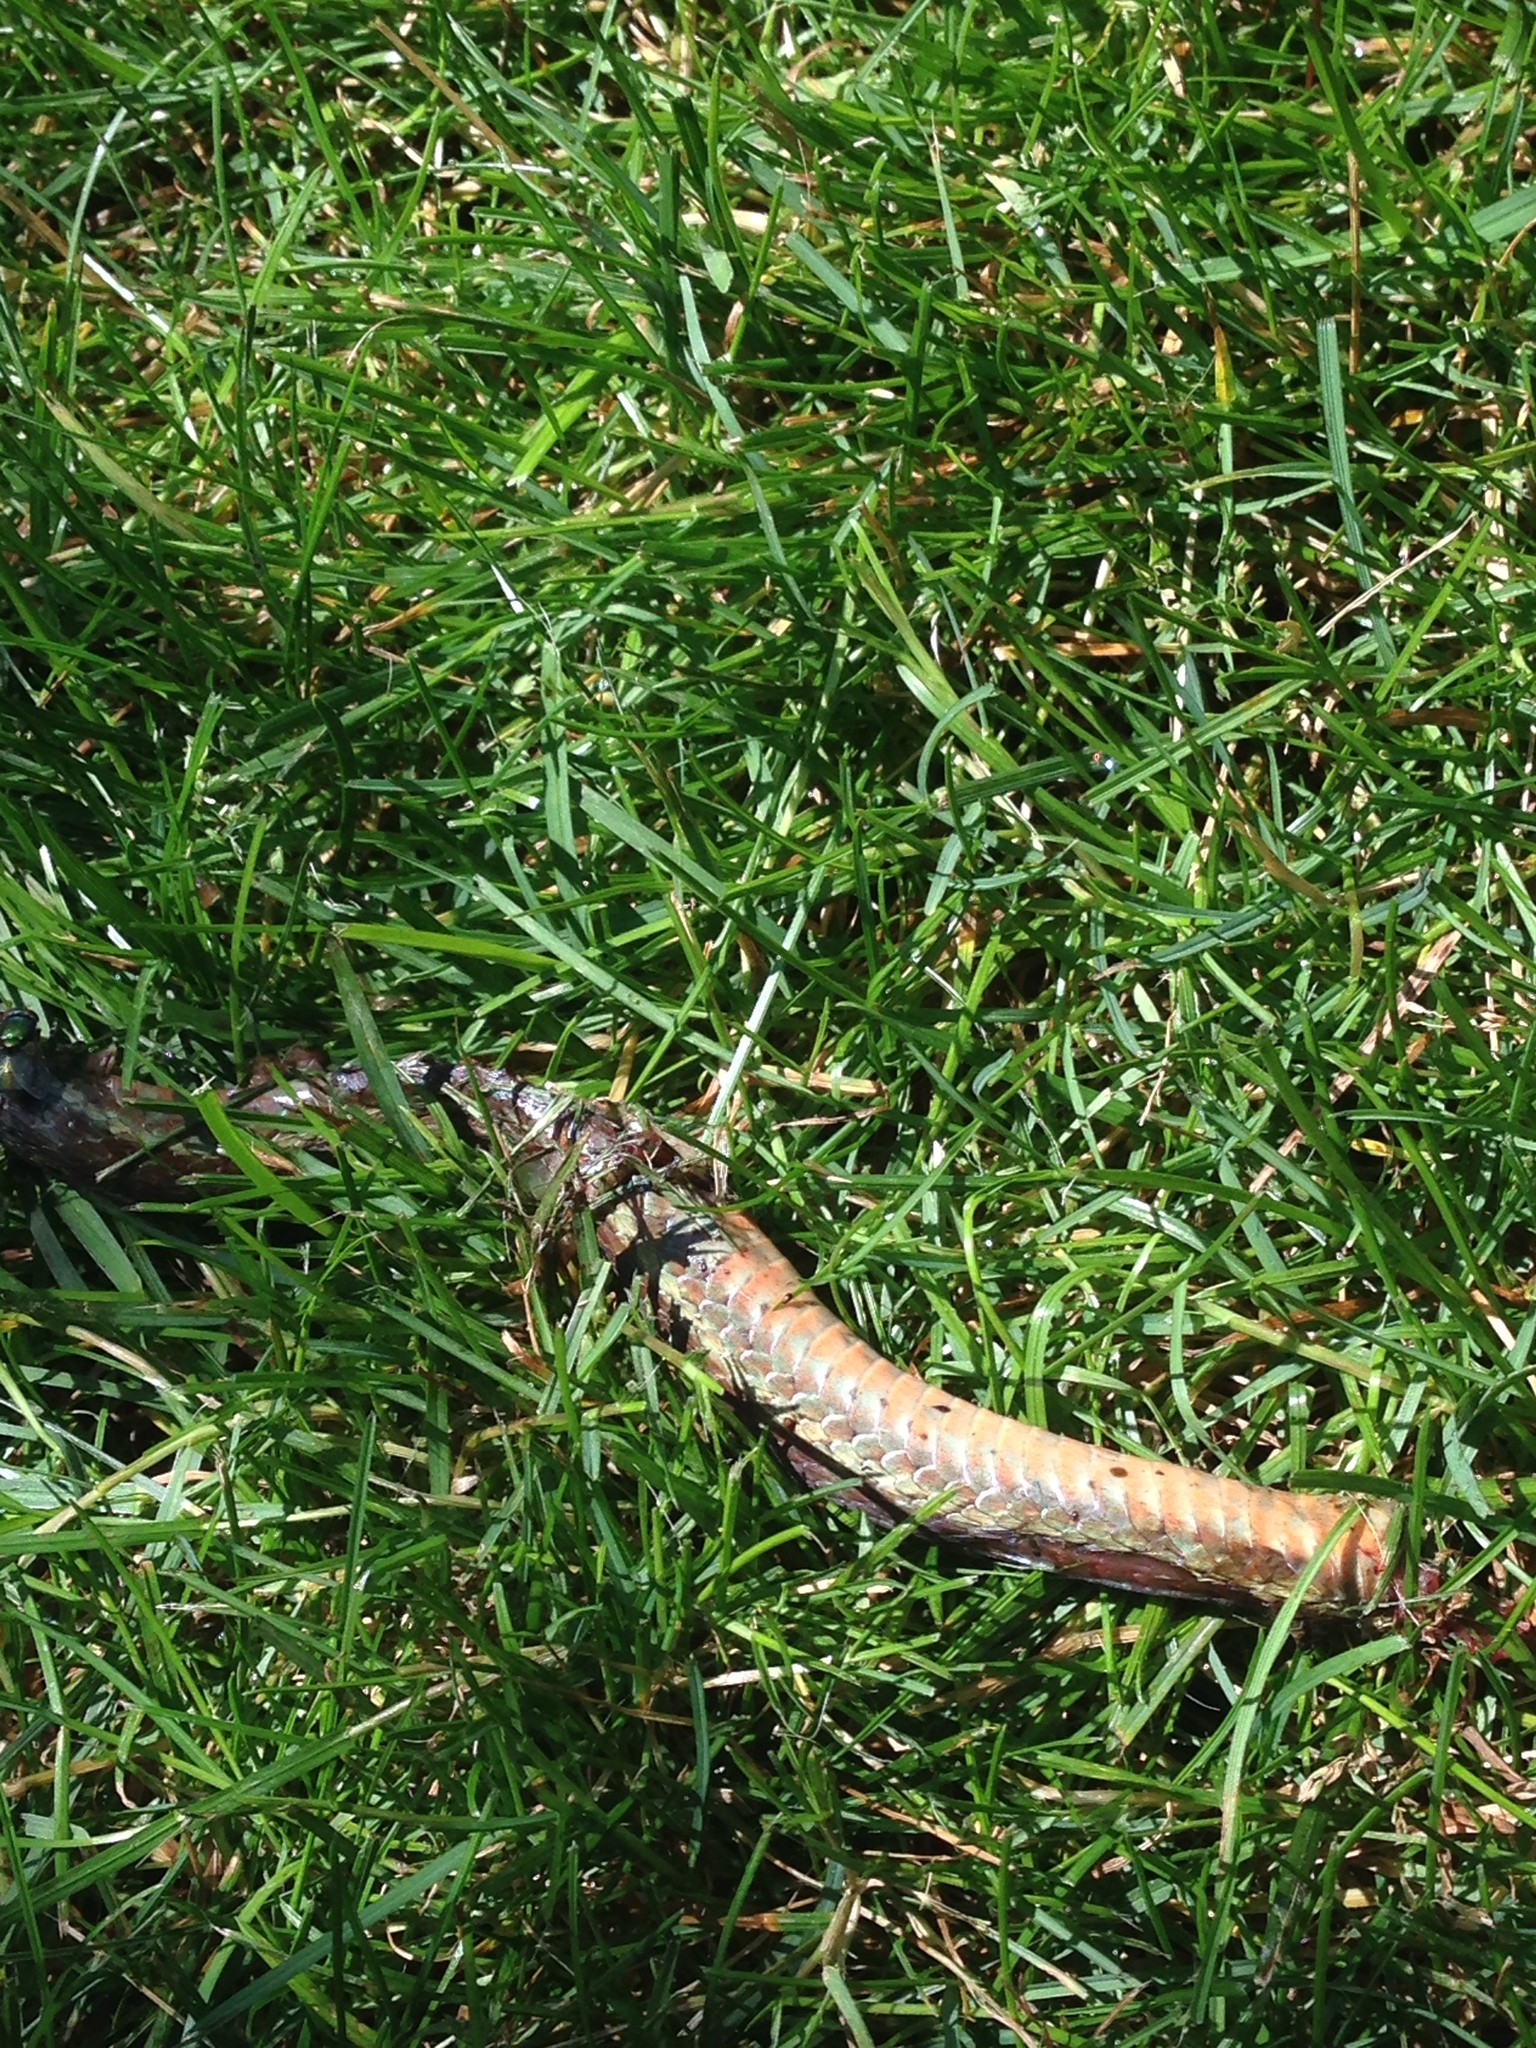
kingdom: Animalia
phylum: Chordata
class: Squamata
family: Colubridae
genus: Thamnophis
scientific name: Thamnophis sirtalis
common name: Common garter snake
